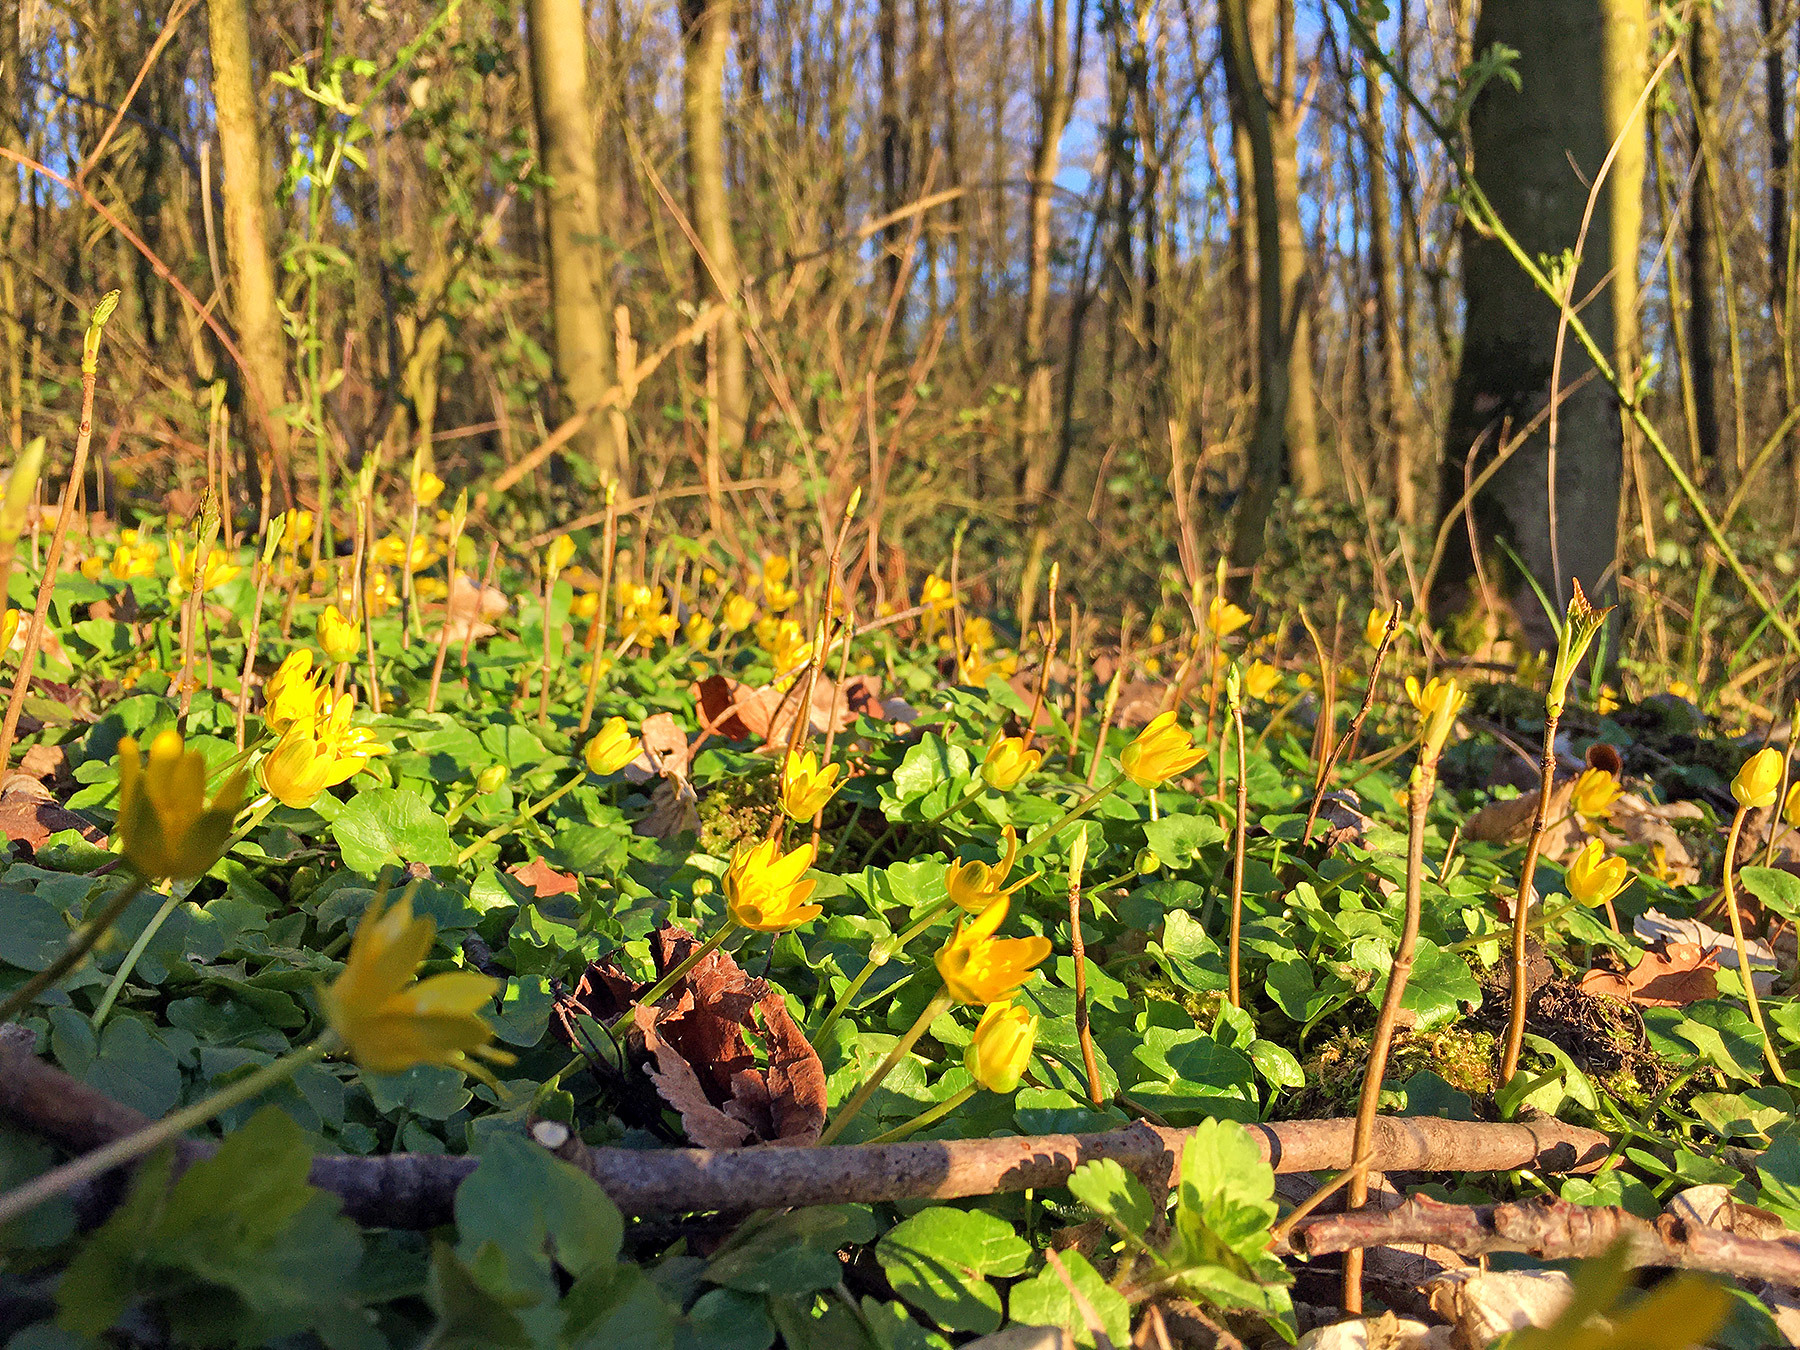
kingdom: Plantae
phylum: Tracheophyta
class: Magnoliopsida
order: Ranunculales
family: Ranunculaceae
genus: Ficaria
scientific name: Ficaria verna
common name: Lesser celandine
